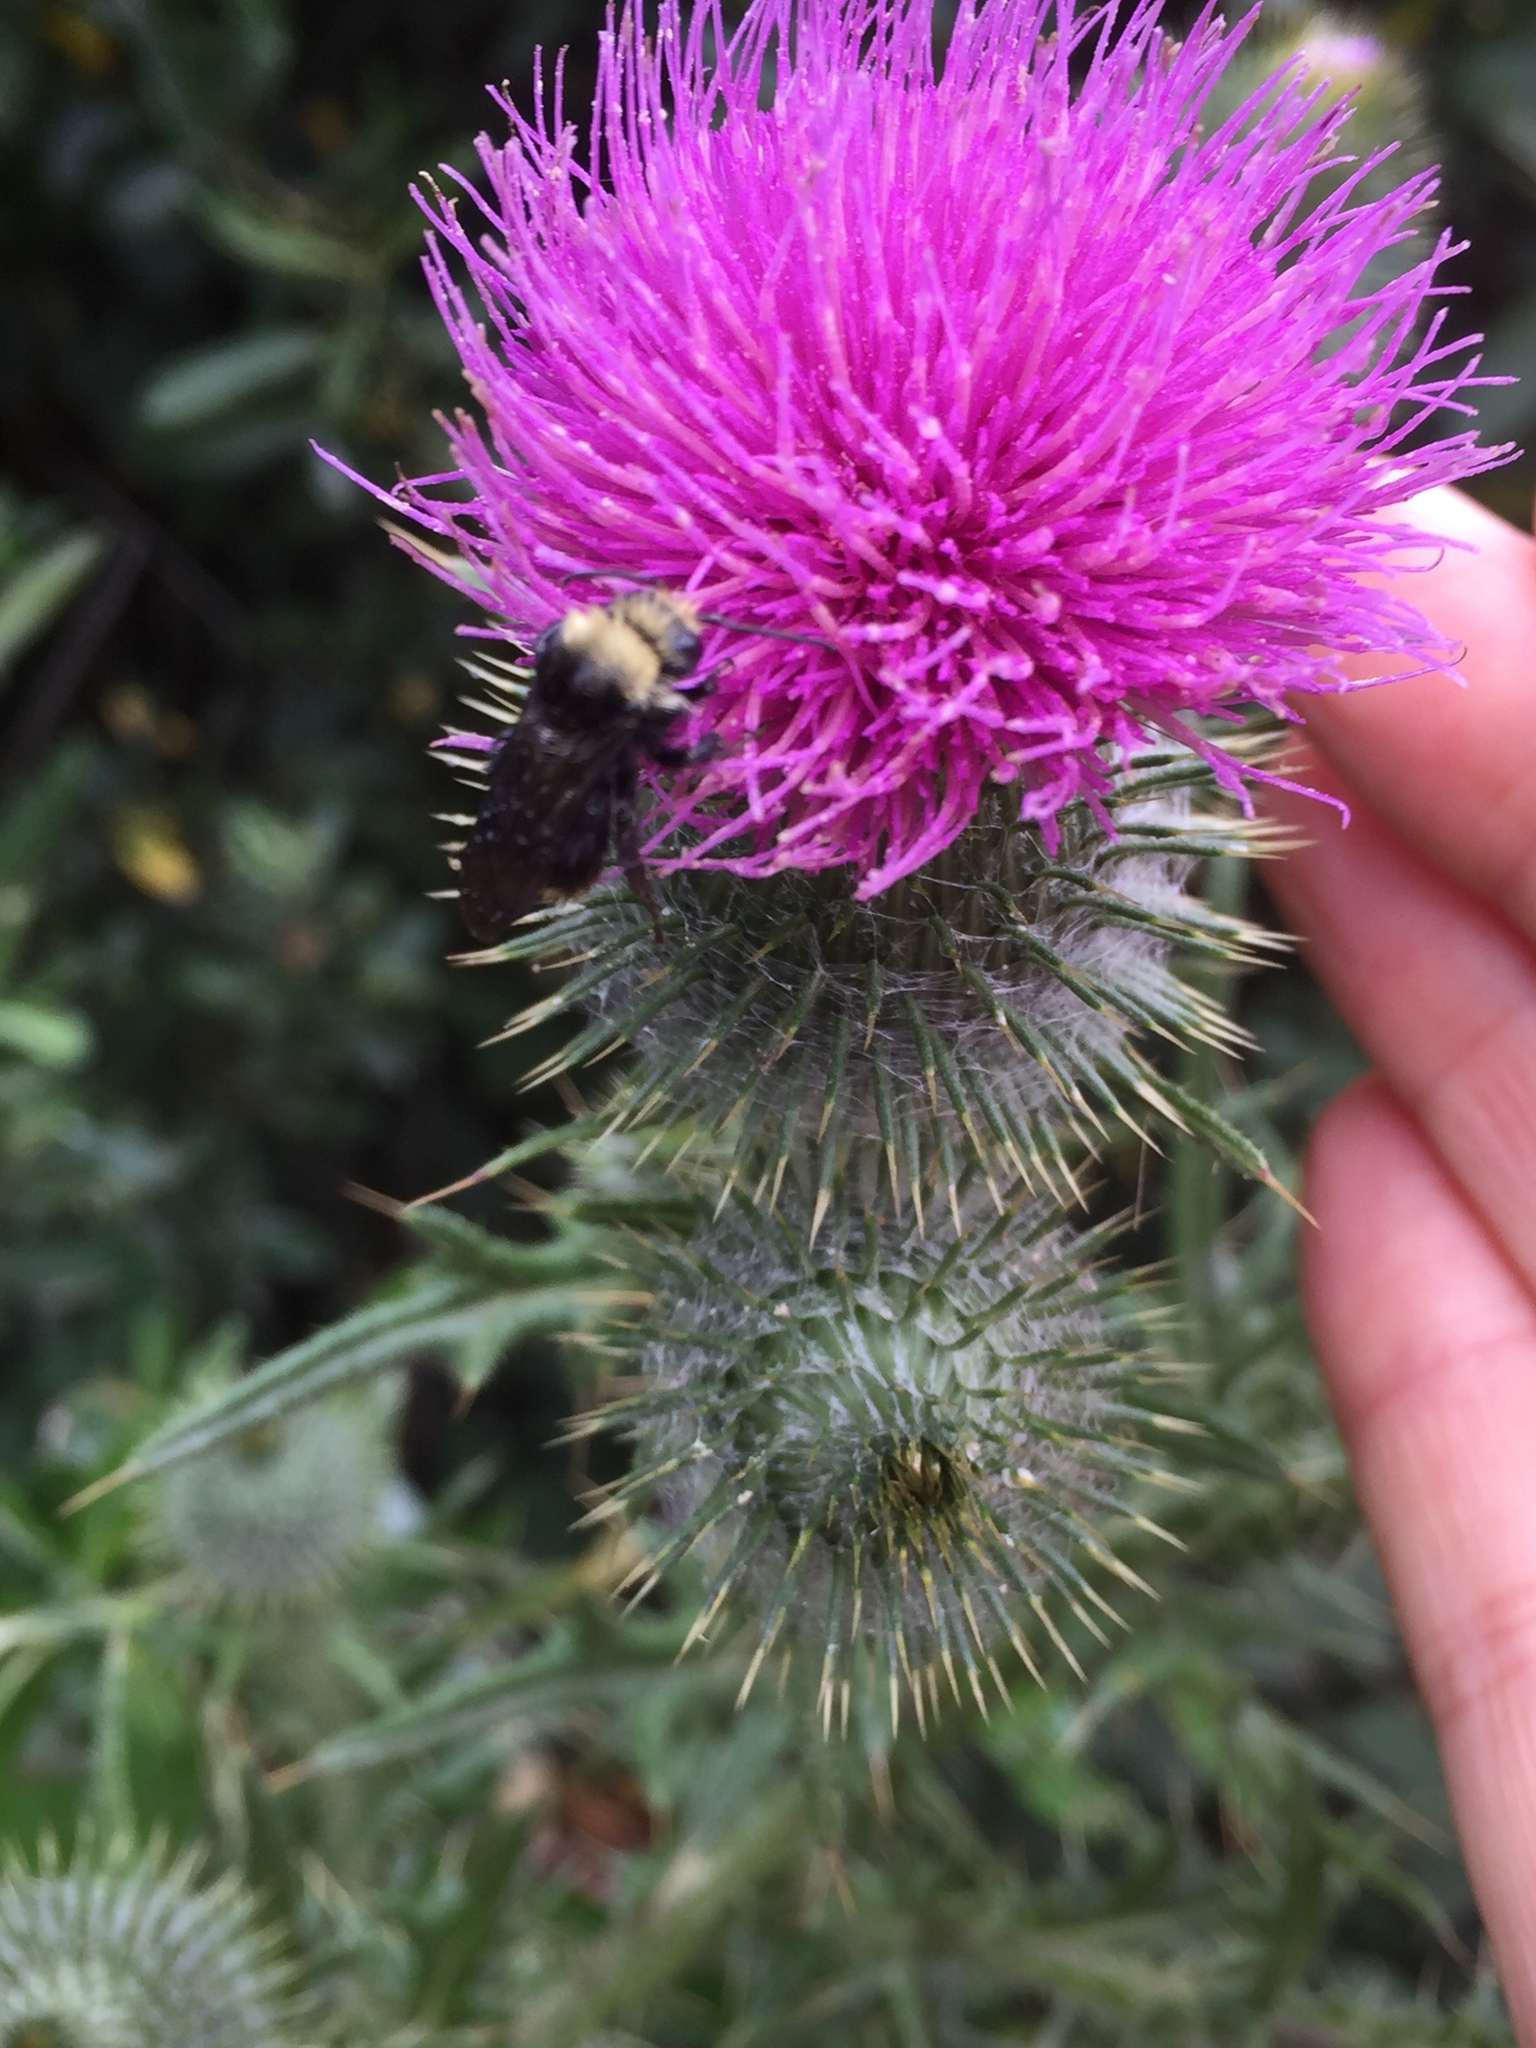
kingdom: Animalia
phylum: Arthropoda
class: Insecta
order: Hymenoptera
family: Apidae
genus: Bombus
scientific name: Bombus vosnesenskii
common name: Vosnesensky bumble bee
